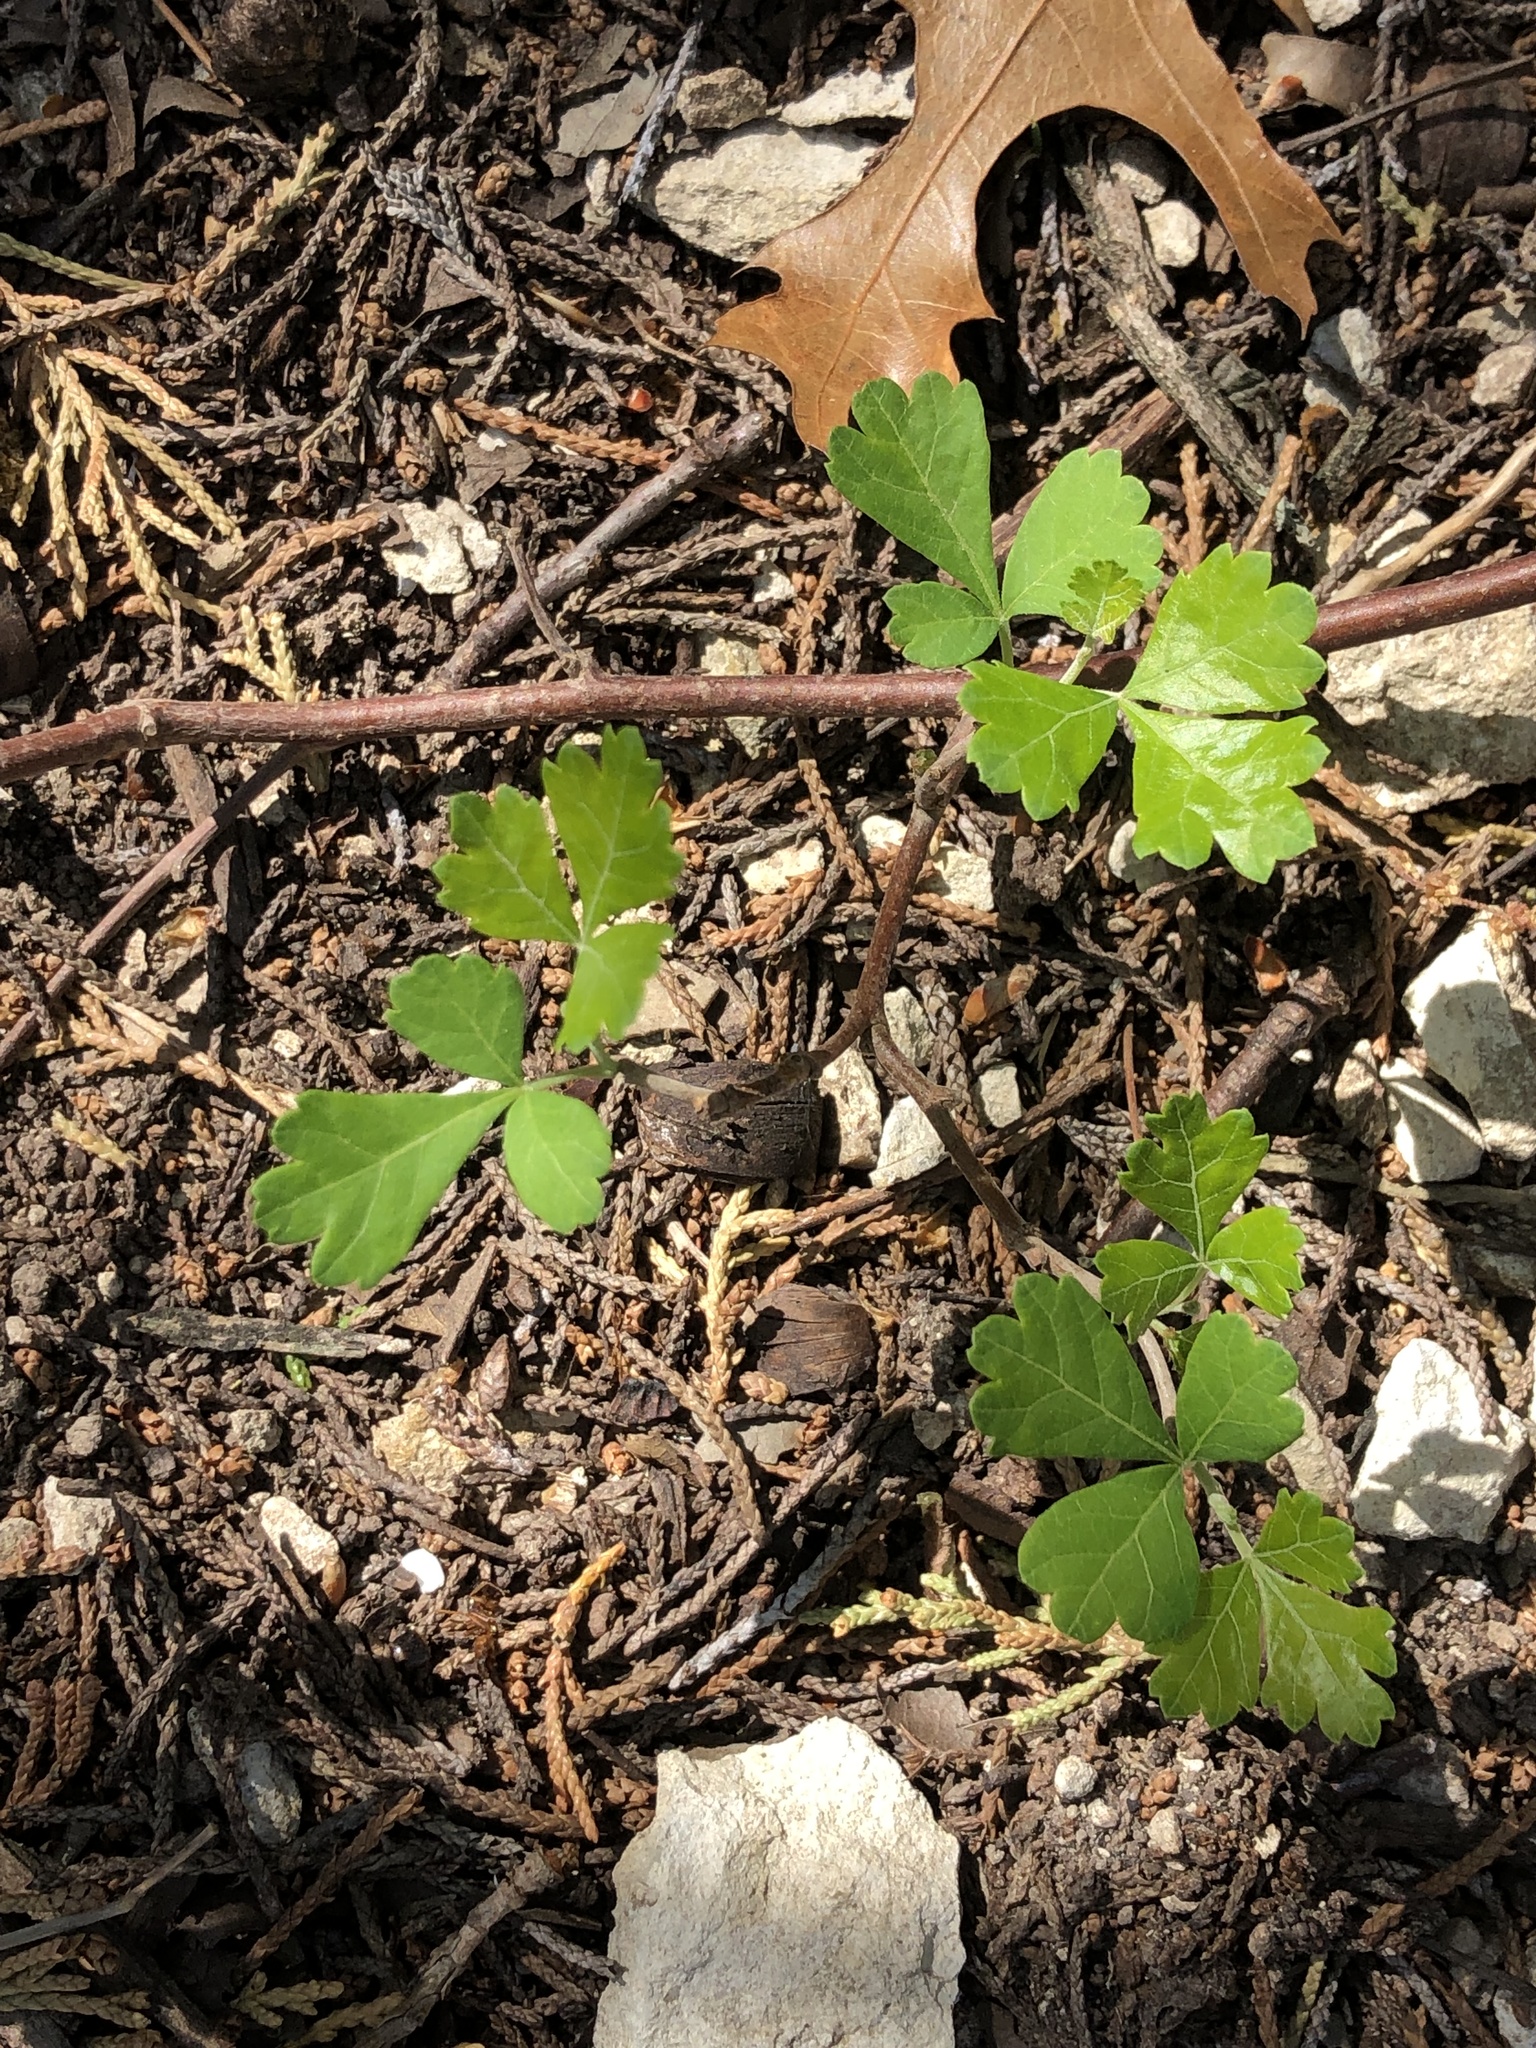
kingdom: Plantae
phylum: Tracheophyta
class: Magnoliopsida
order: Sapindales
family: Anacardiaceae
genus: Rhus
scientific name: Rhus aromatica
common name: Aromatic sumac
